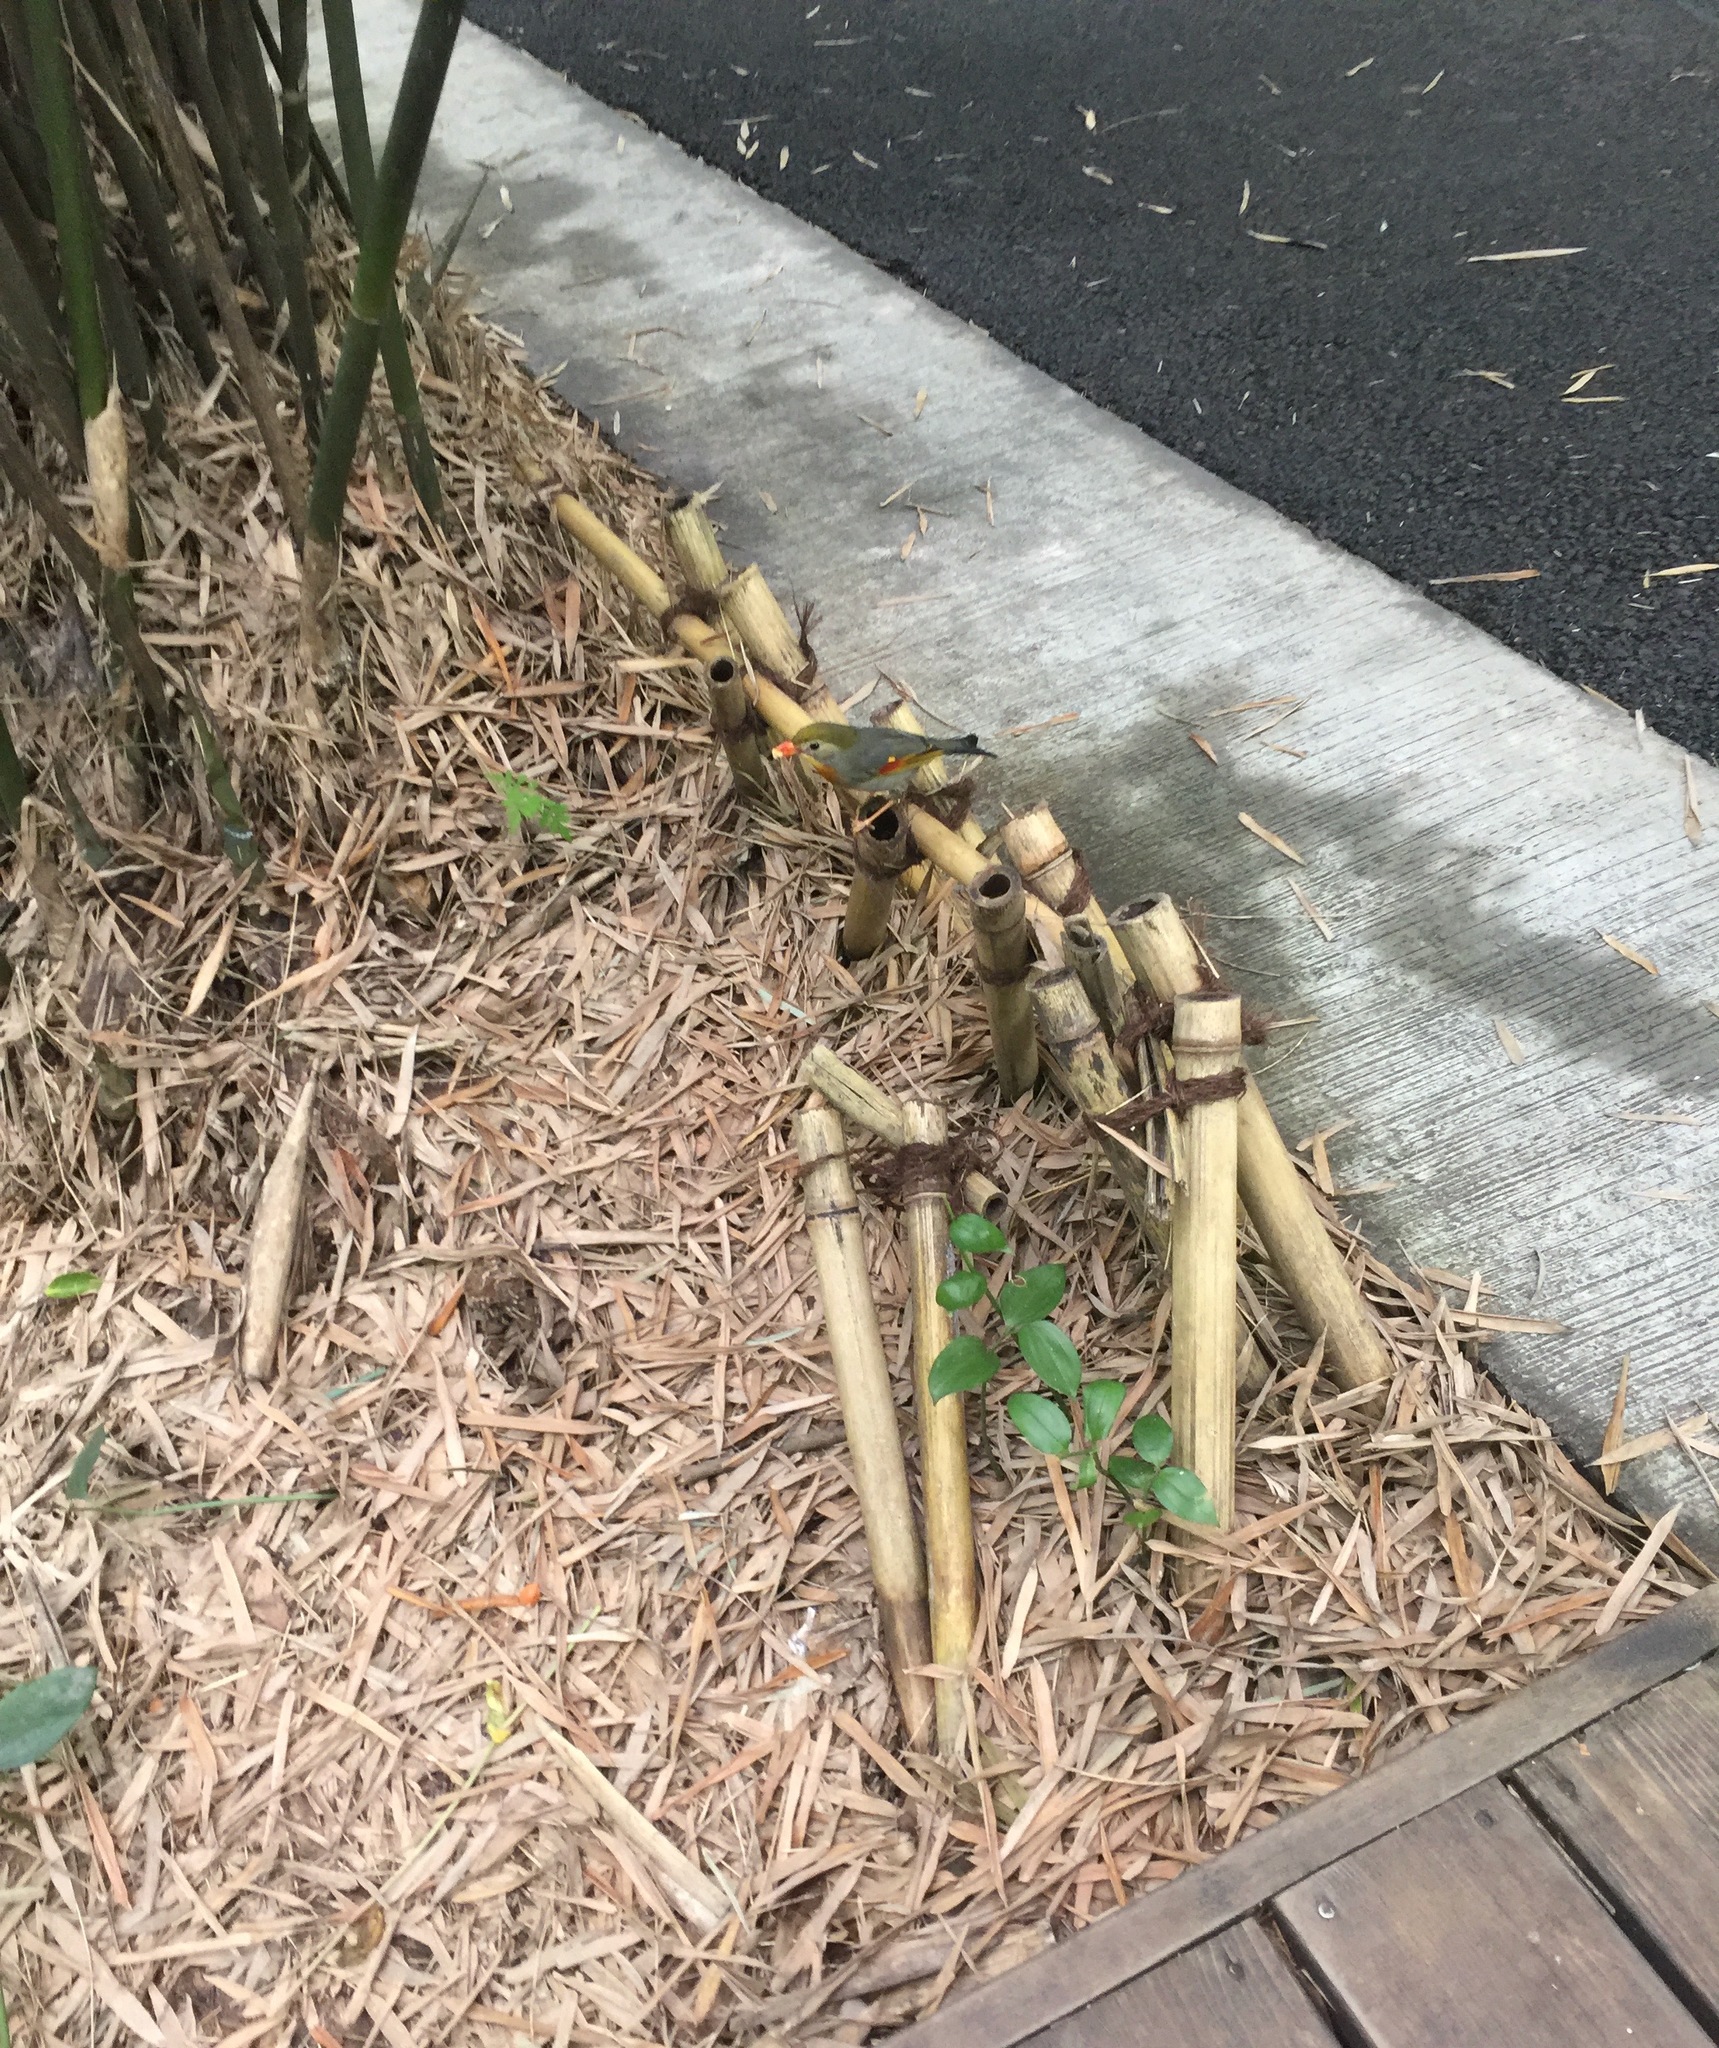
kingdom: Animalia
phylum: Chordata
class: Aves
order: Passeriformes
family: Leiothrichidae
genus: Leiothrix
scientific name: Leiothrix lutea
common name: Red-billed leiothrix
